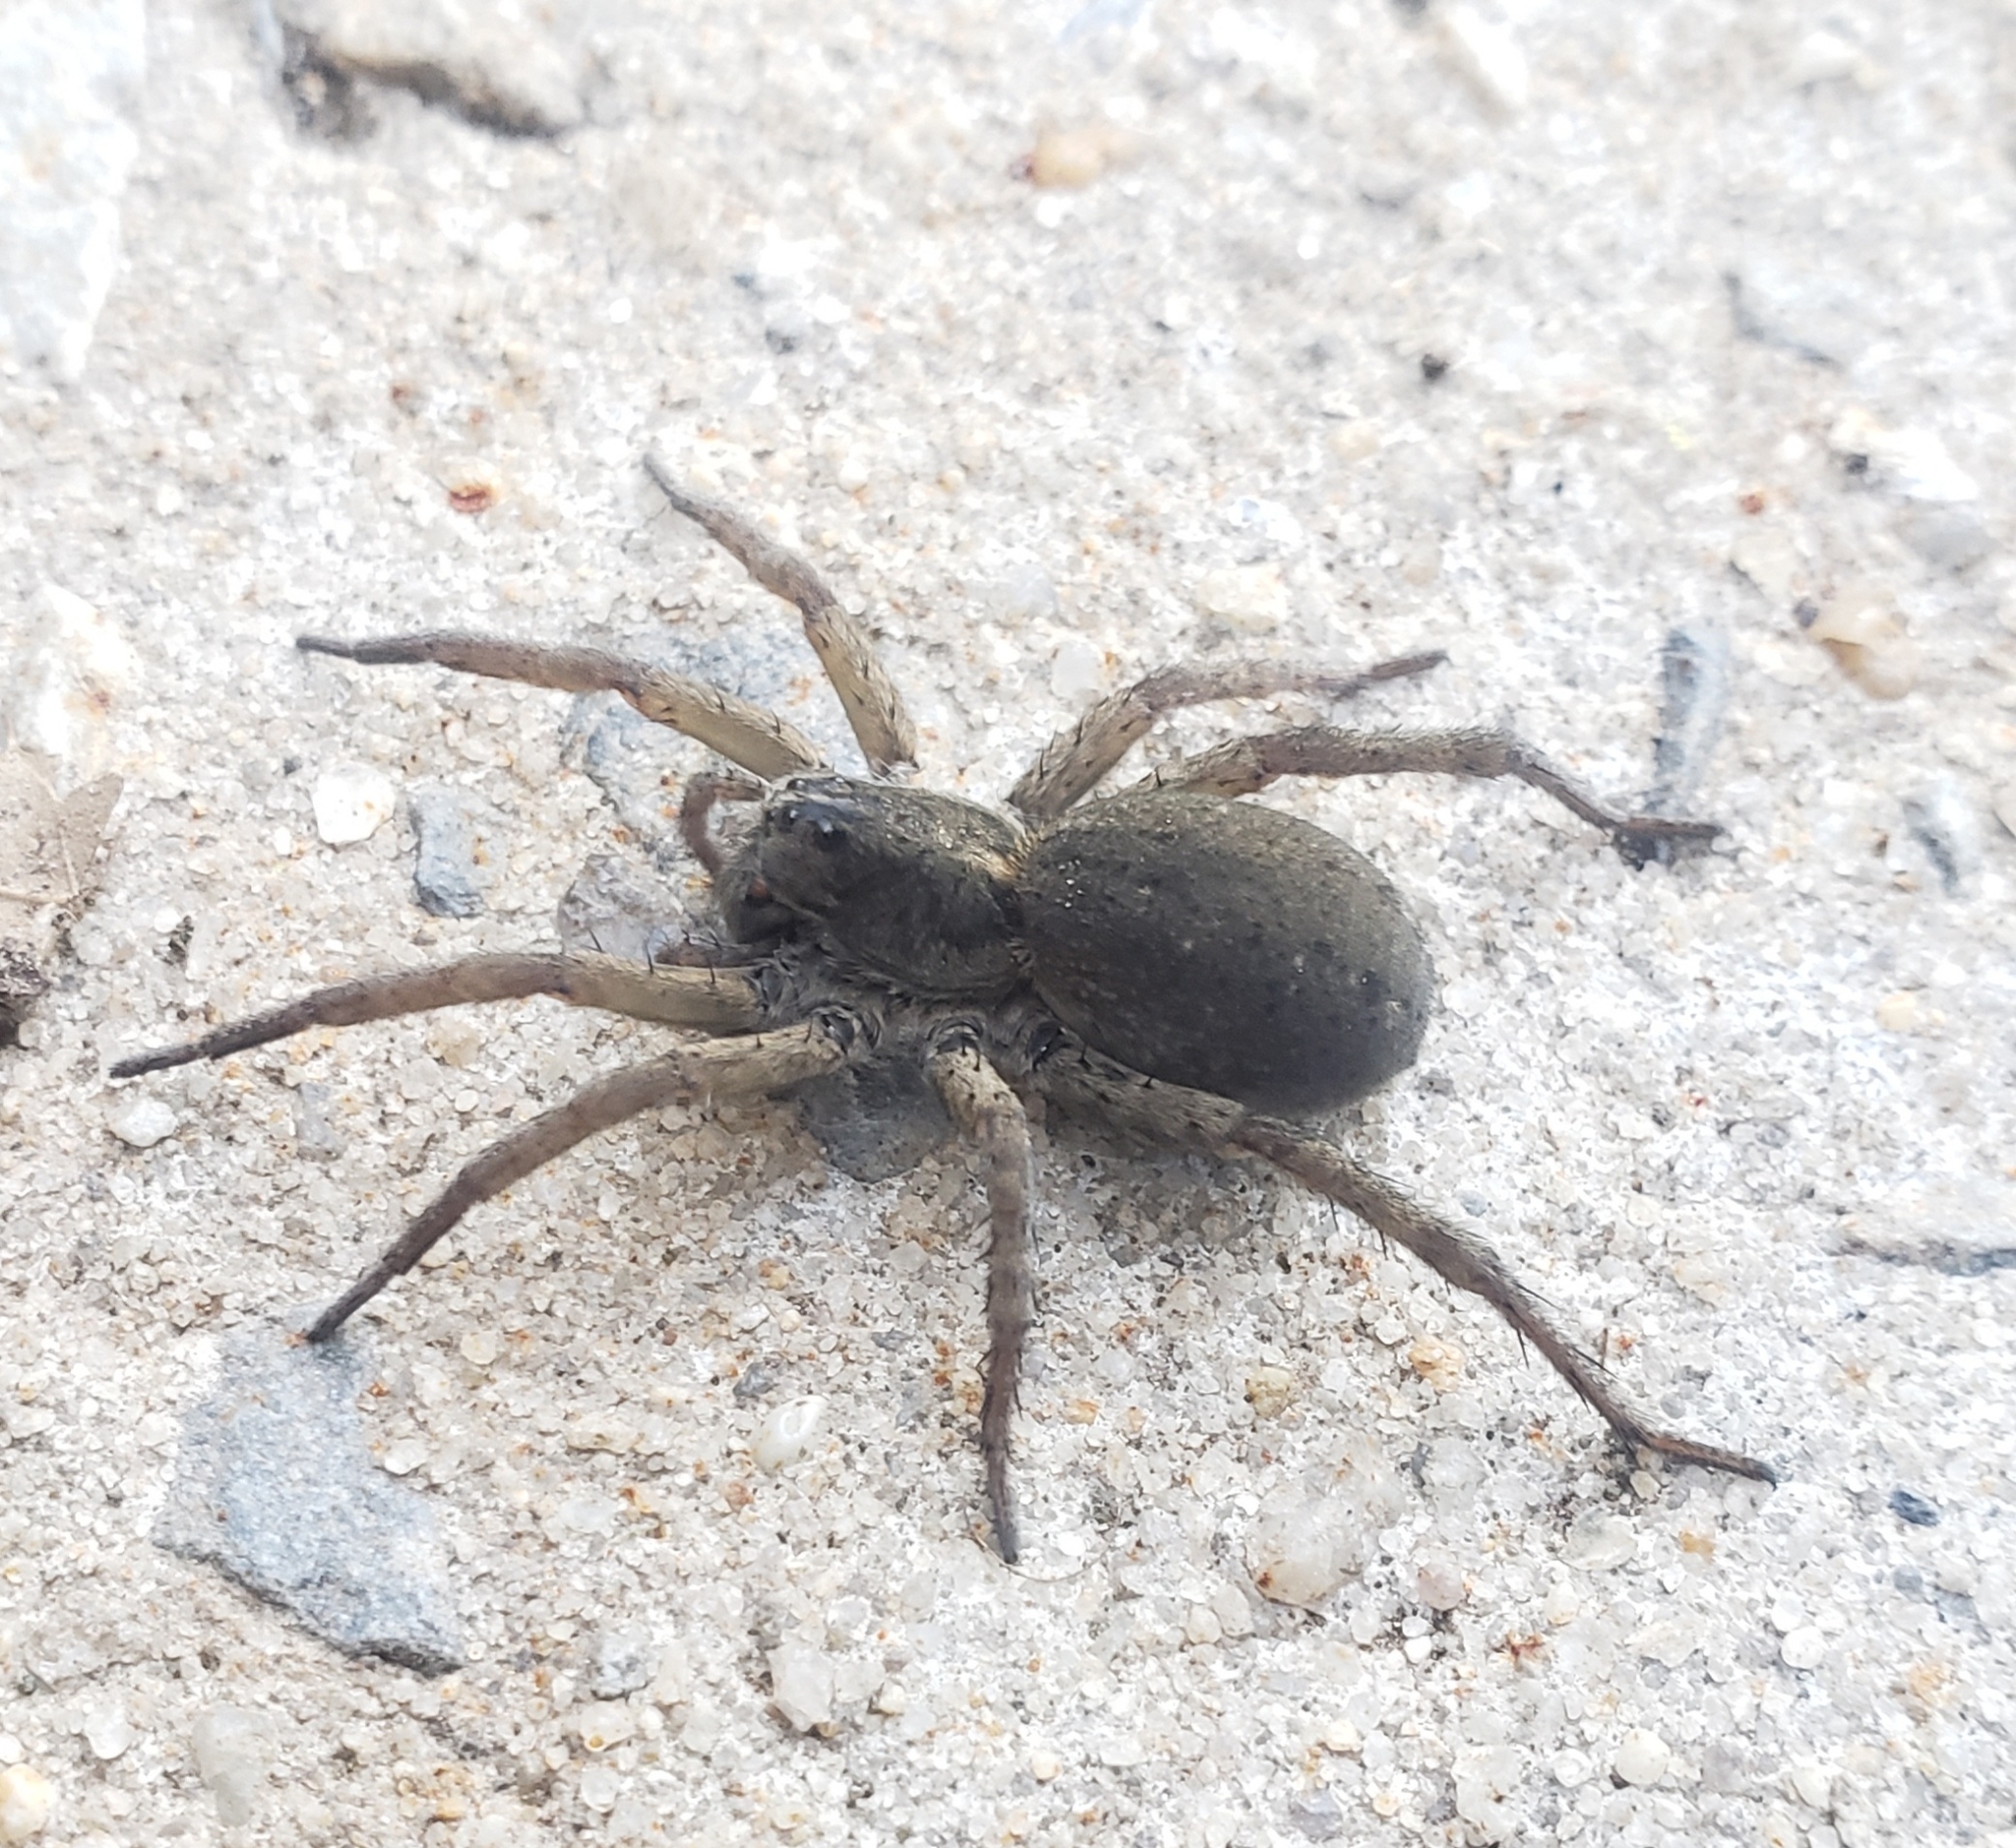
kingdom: Animalia
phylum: Arthropoda
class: Arachnida
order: Araneae
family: Lycosidae
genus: Tigrosa
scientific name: Tigrosa helluo
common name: Wetland giant wolf spider
